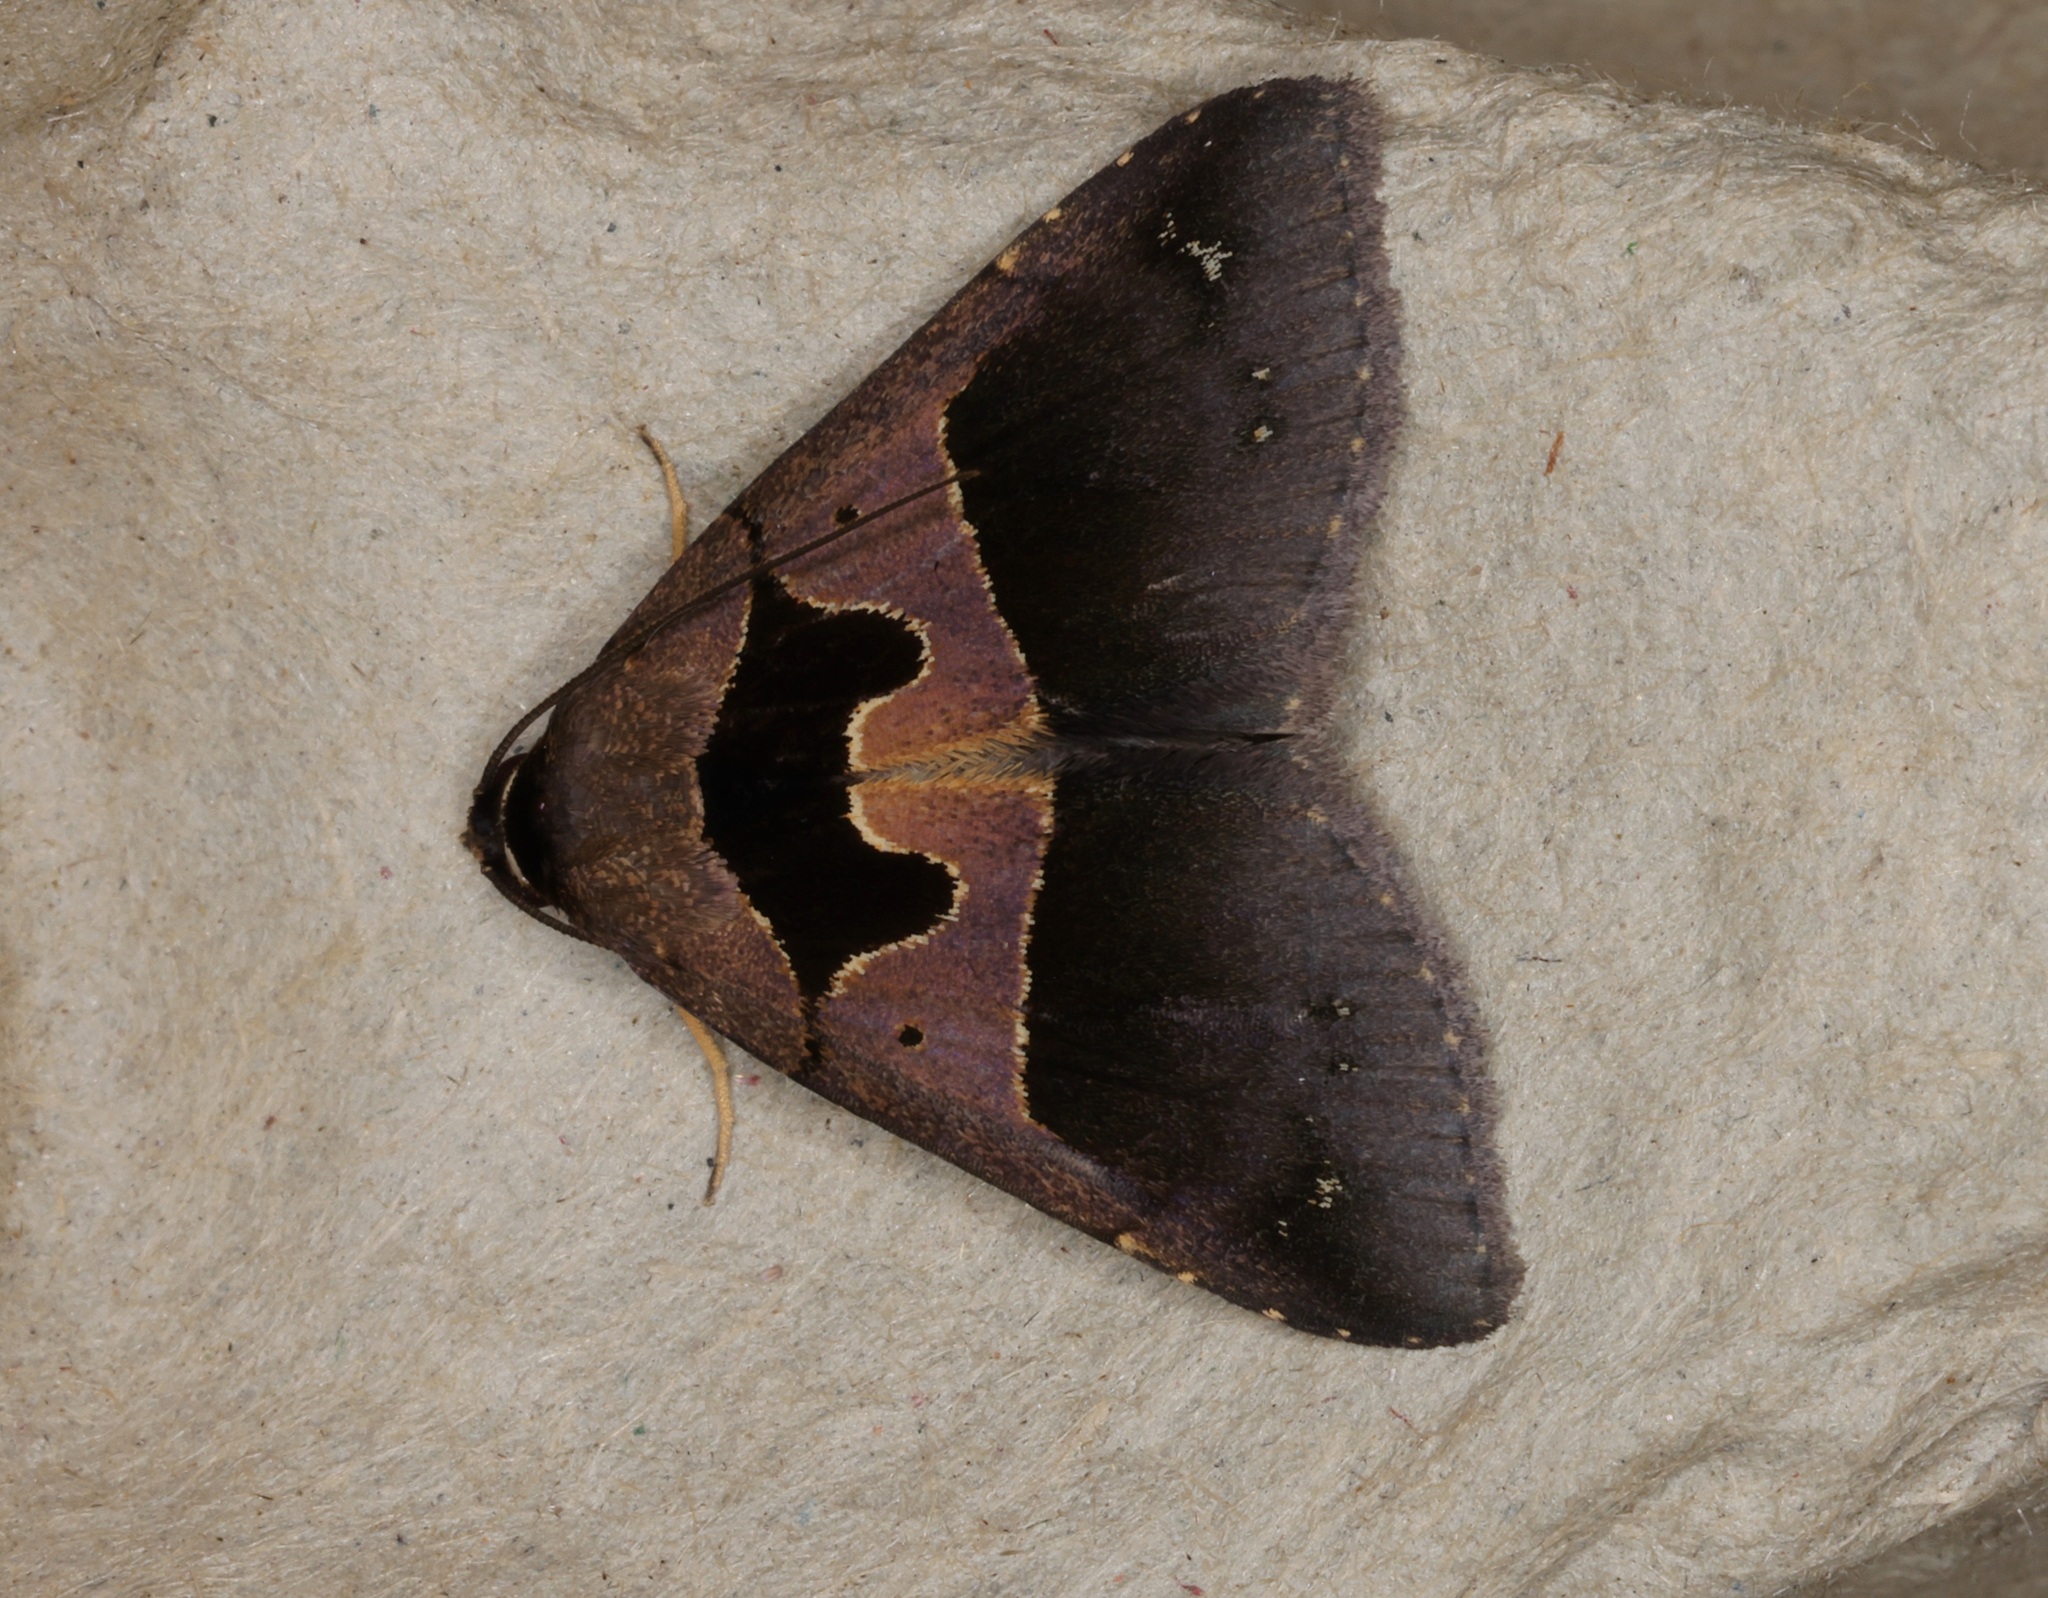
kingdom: Animalia
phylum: Arthropoda
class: Insecta
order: Lepidoptera
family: Erebidae
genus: Crithote
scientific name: Crithote pallivaga
